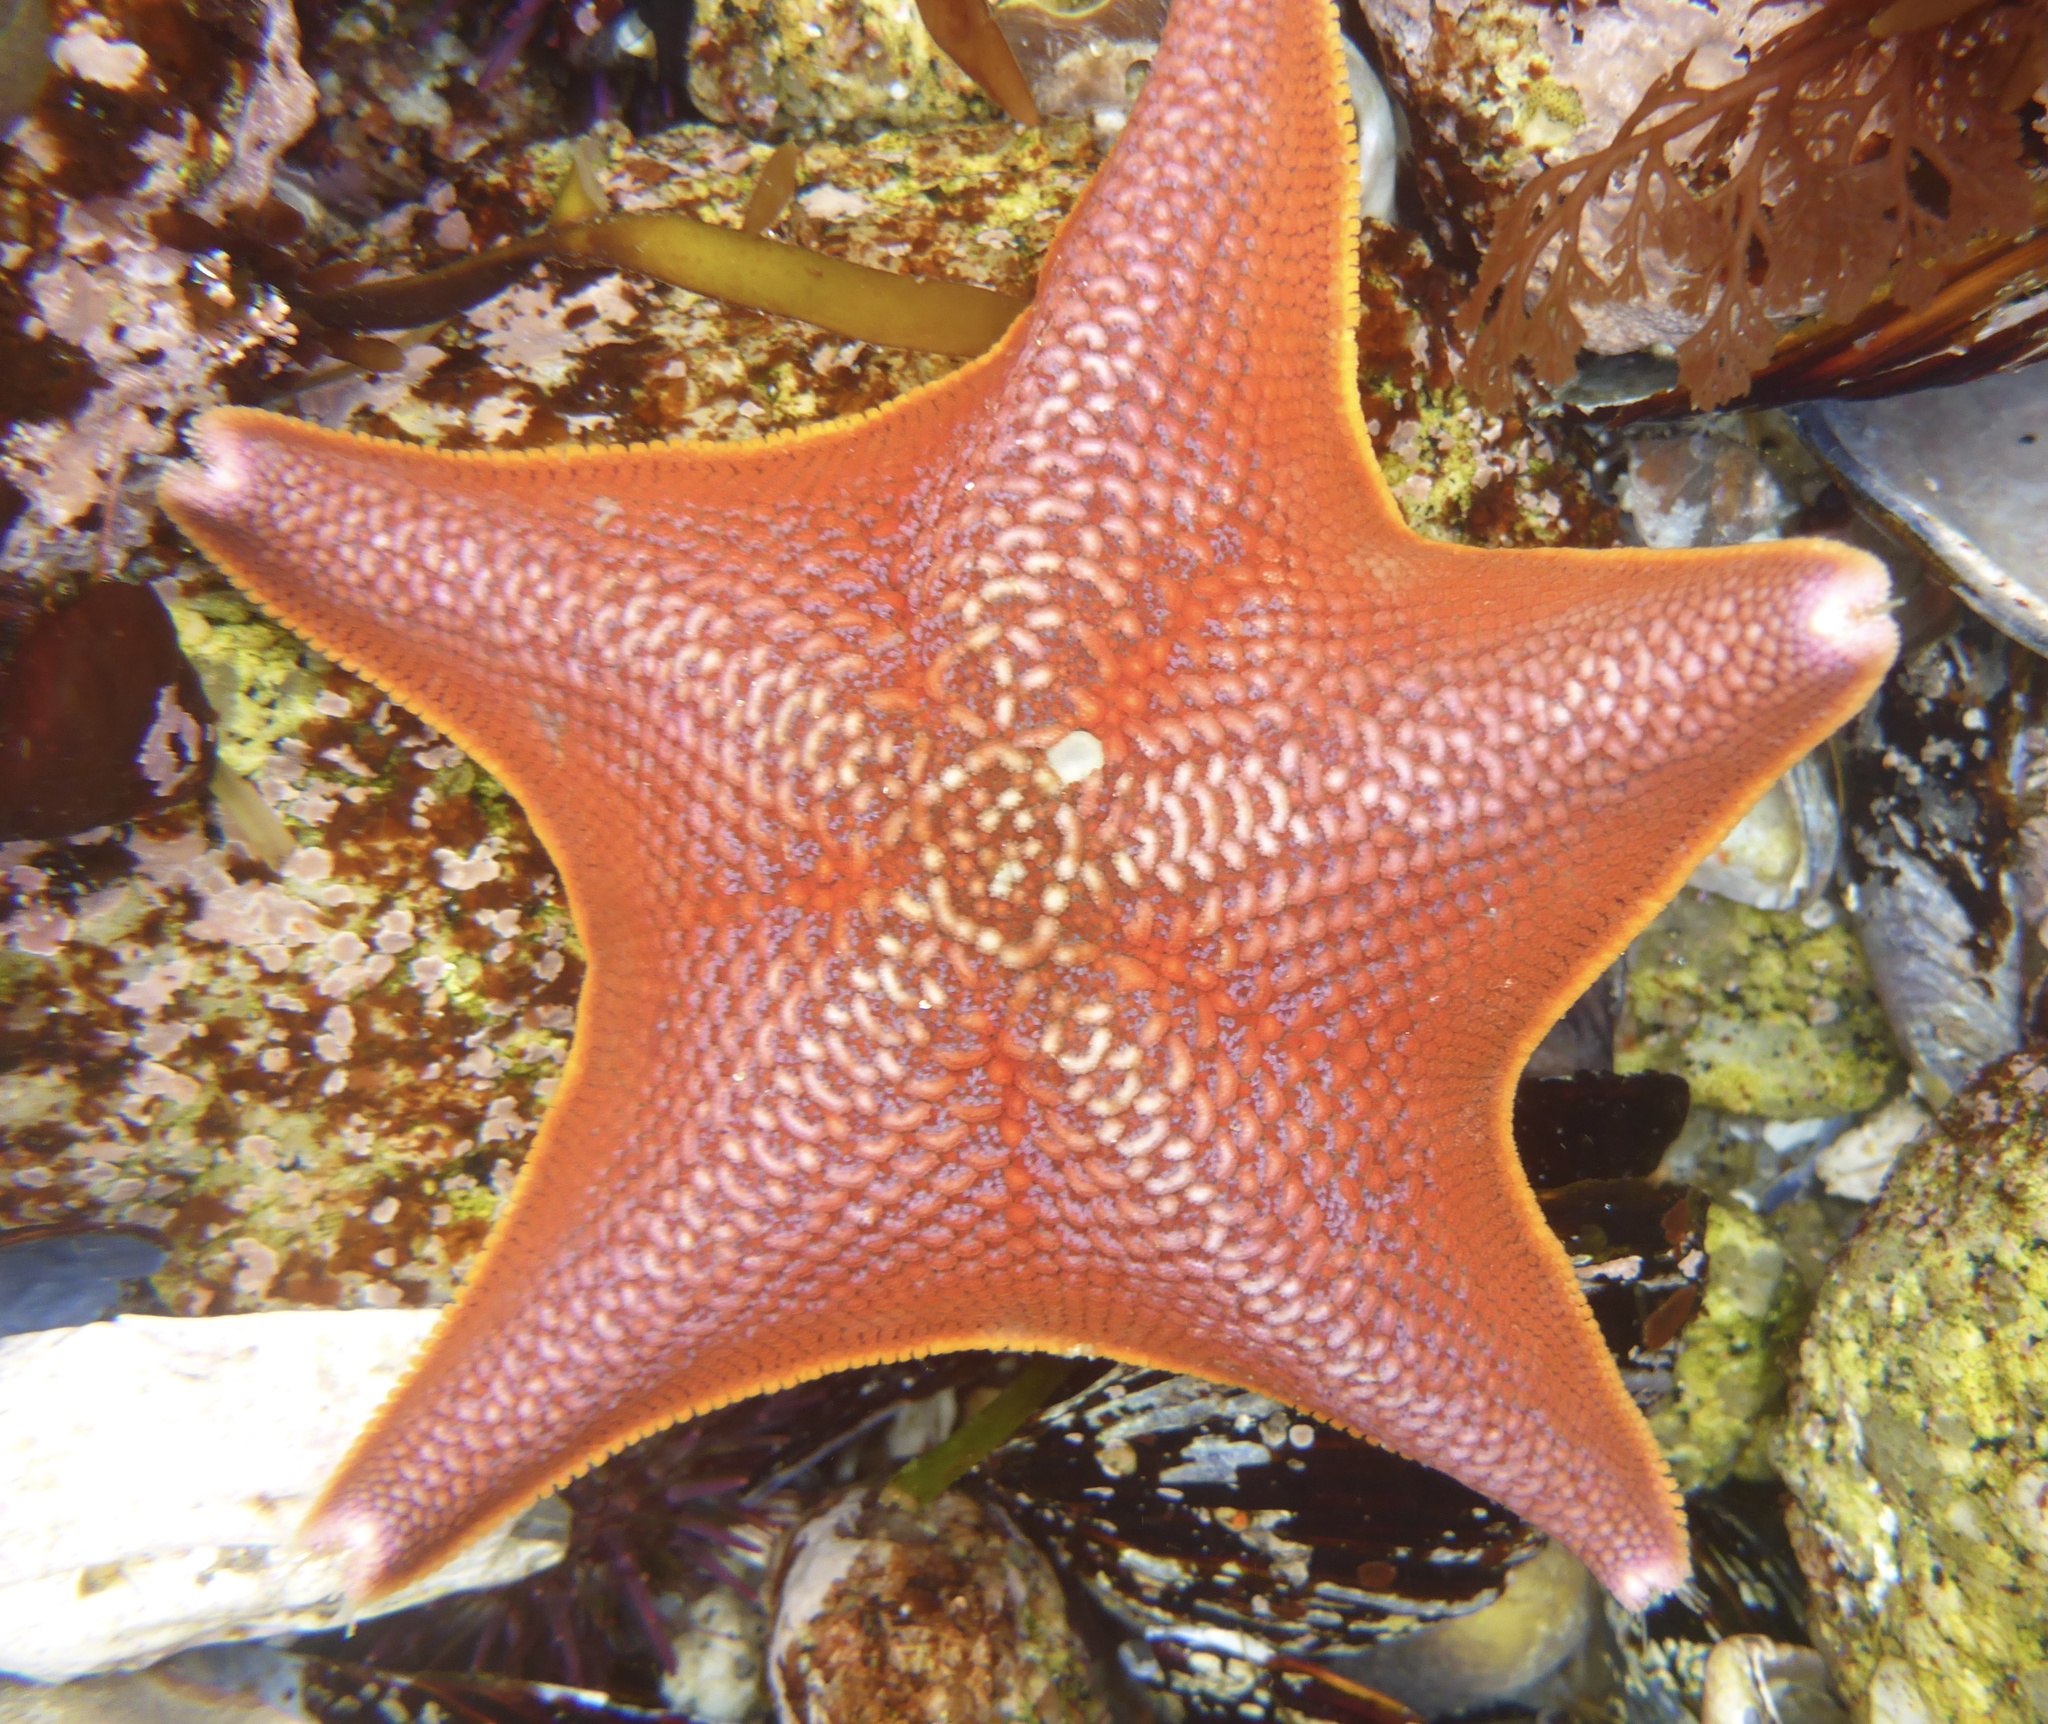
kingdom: Animalia
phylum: Echinodermata
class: Asteroidea
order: Valvatida
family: Asterinidae
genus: Patiria
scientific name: Patiria miniata
